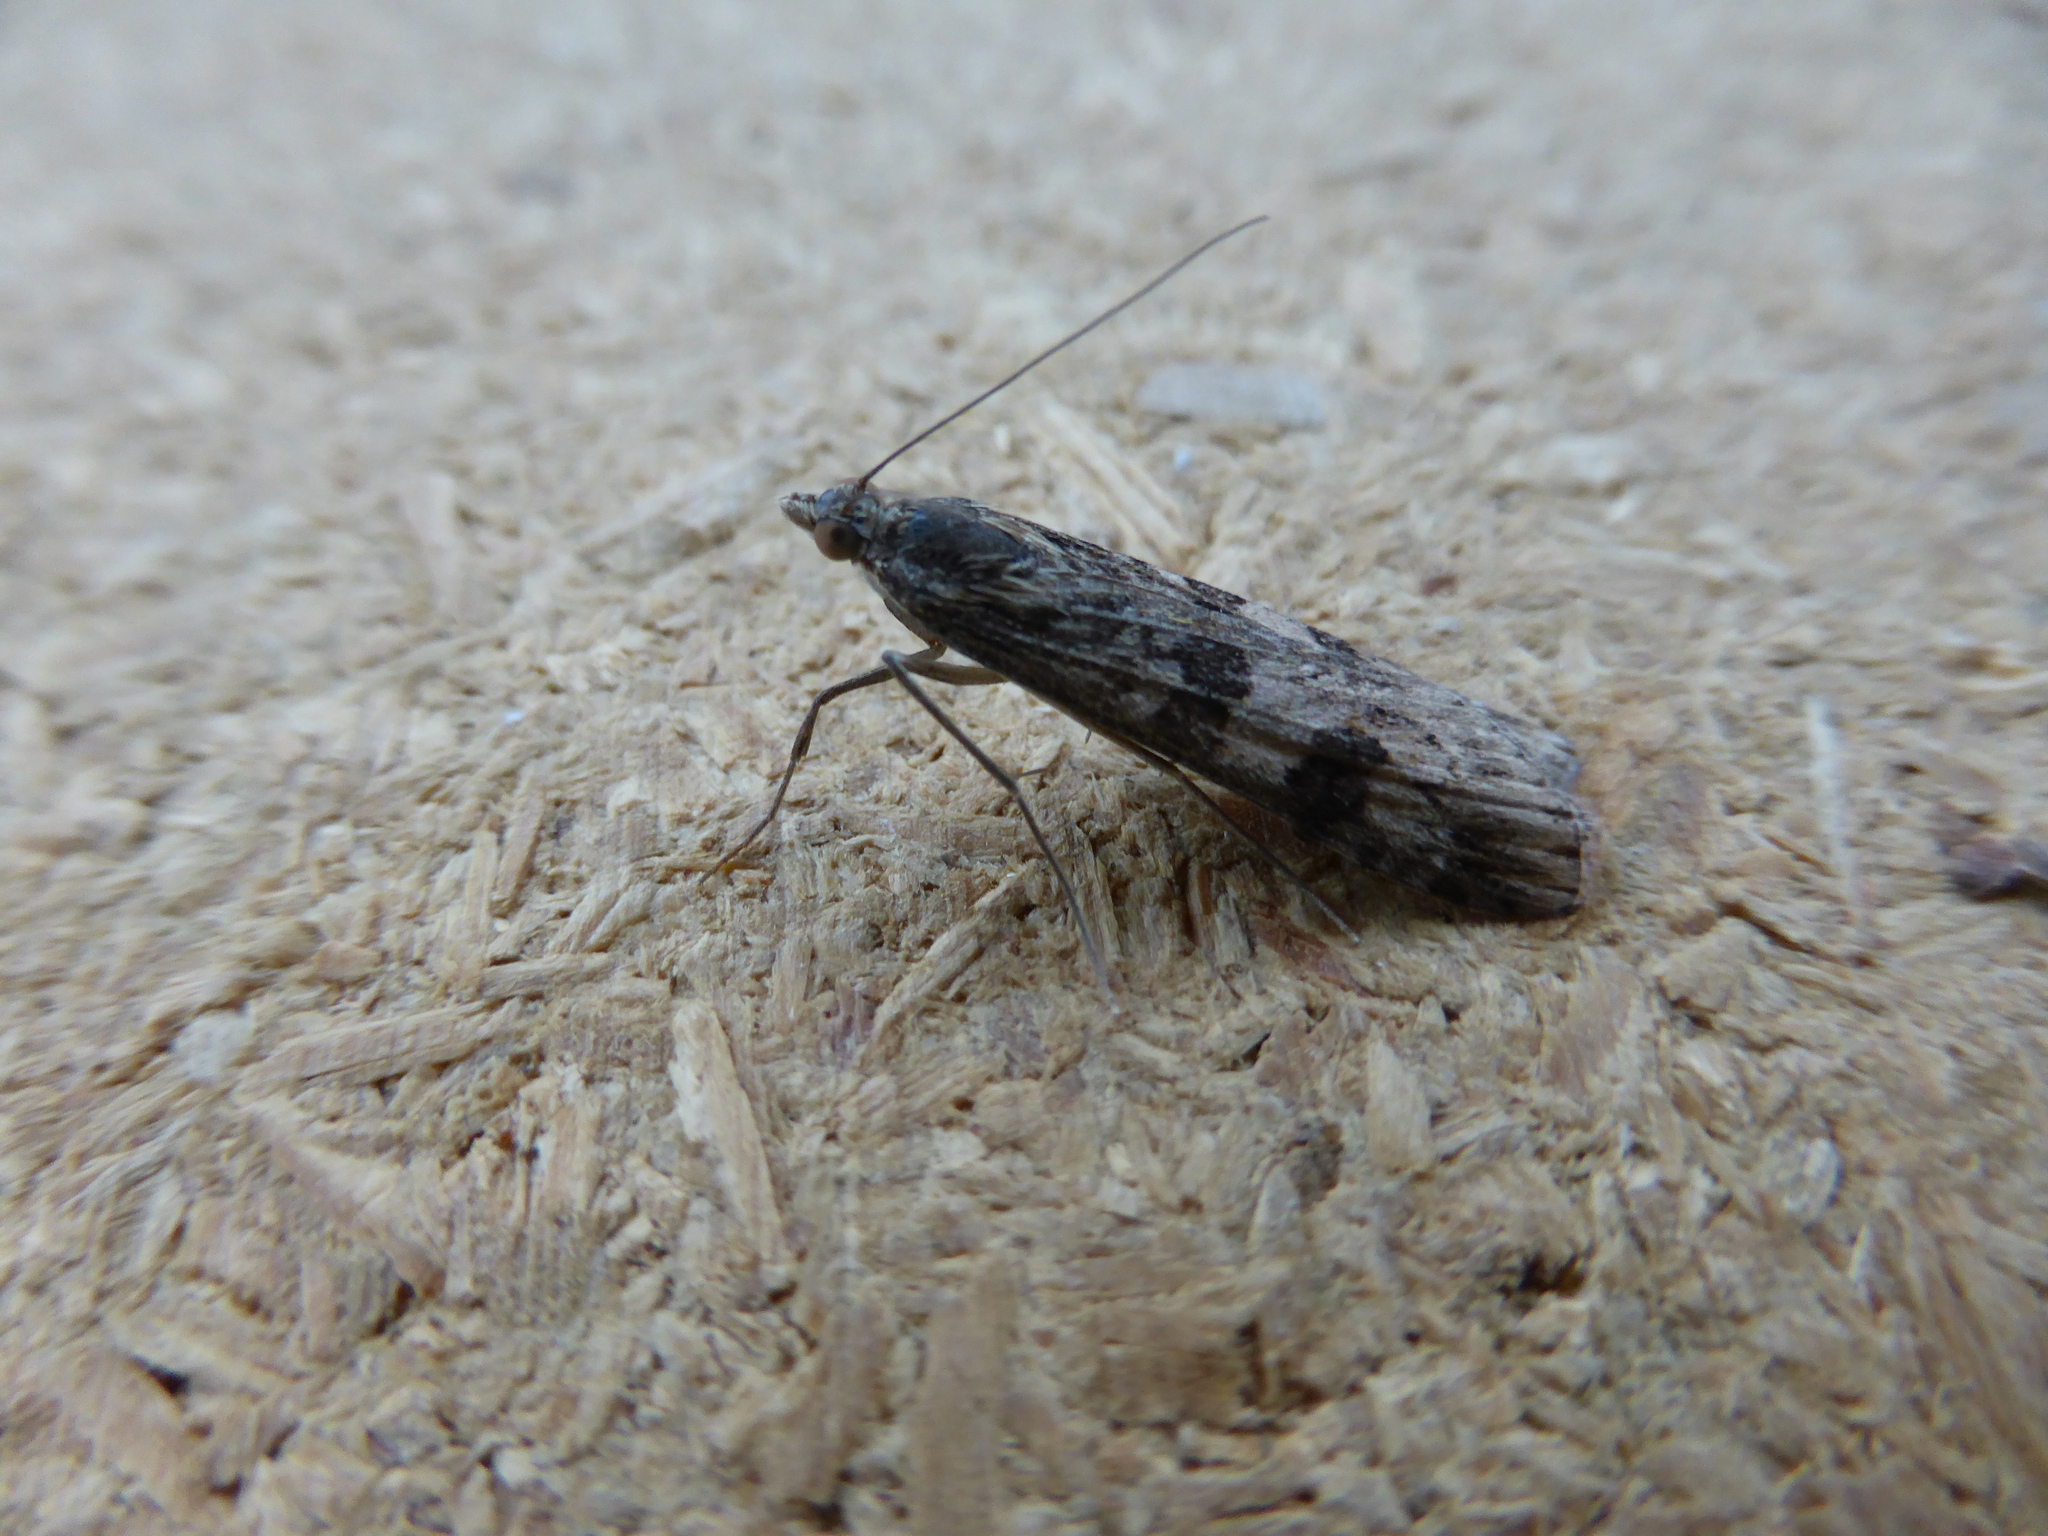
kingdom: Animalia
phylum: Arthropoda
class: Insecta
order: Lepidoptera
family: Crambidae
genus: Nomophila
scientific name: Nomophila noctuella
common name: Rush veneer
